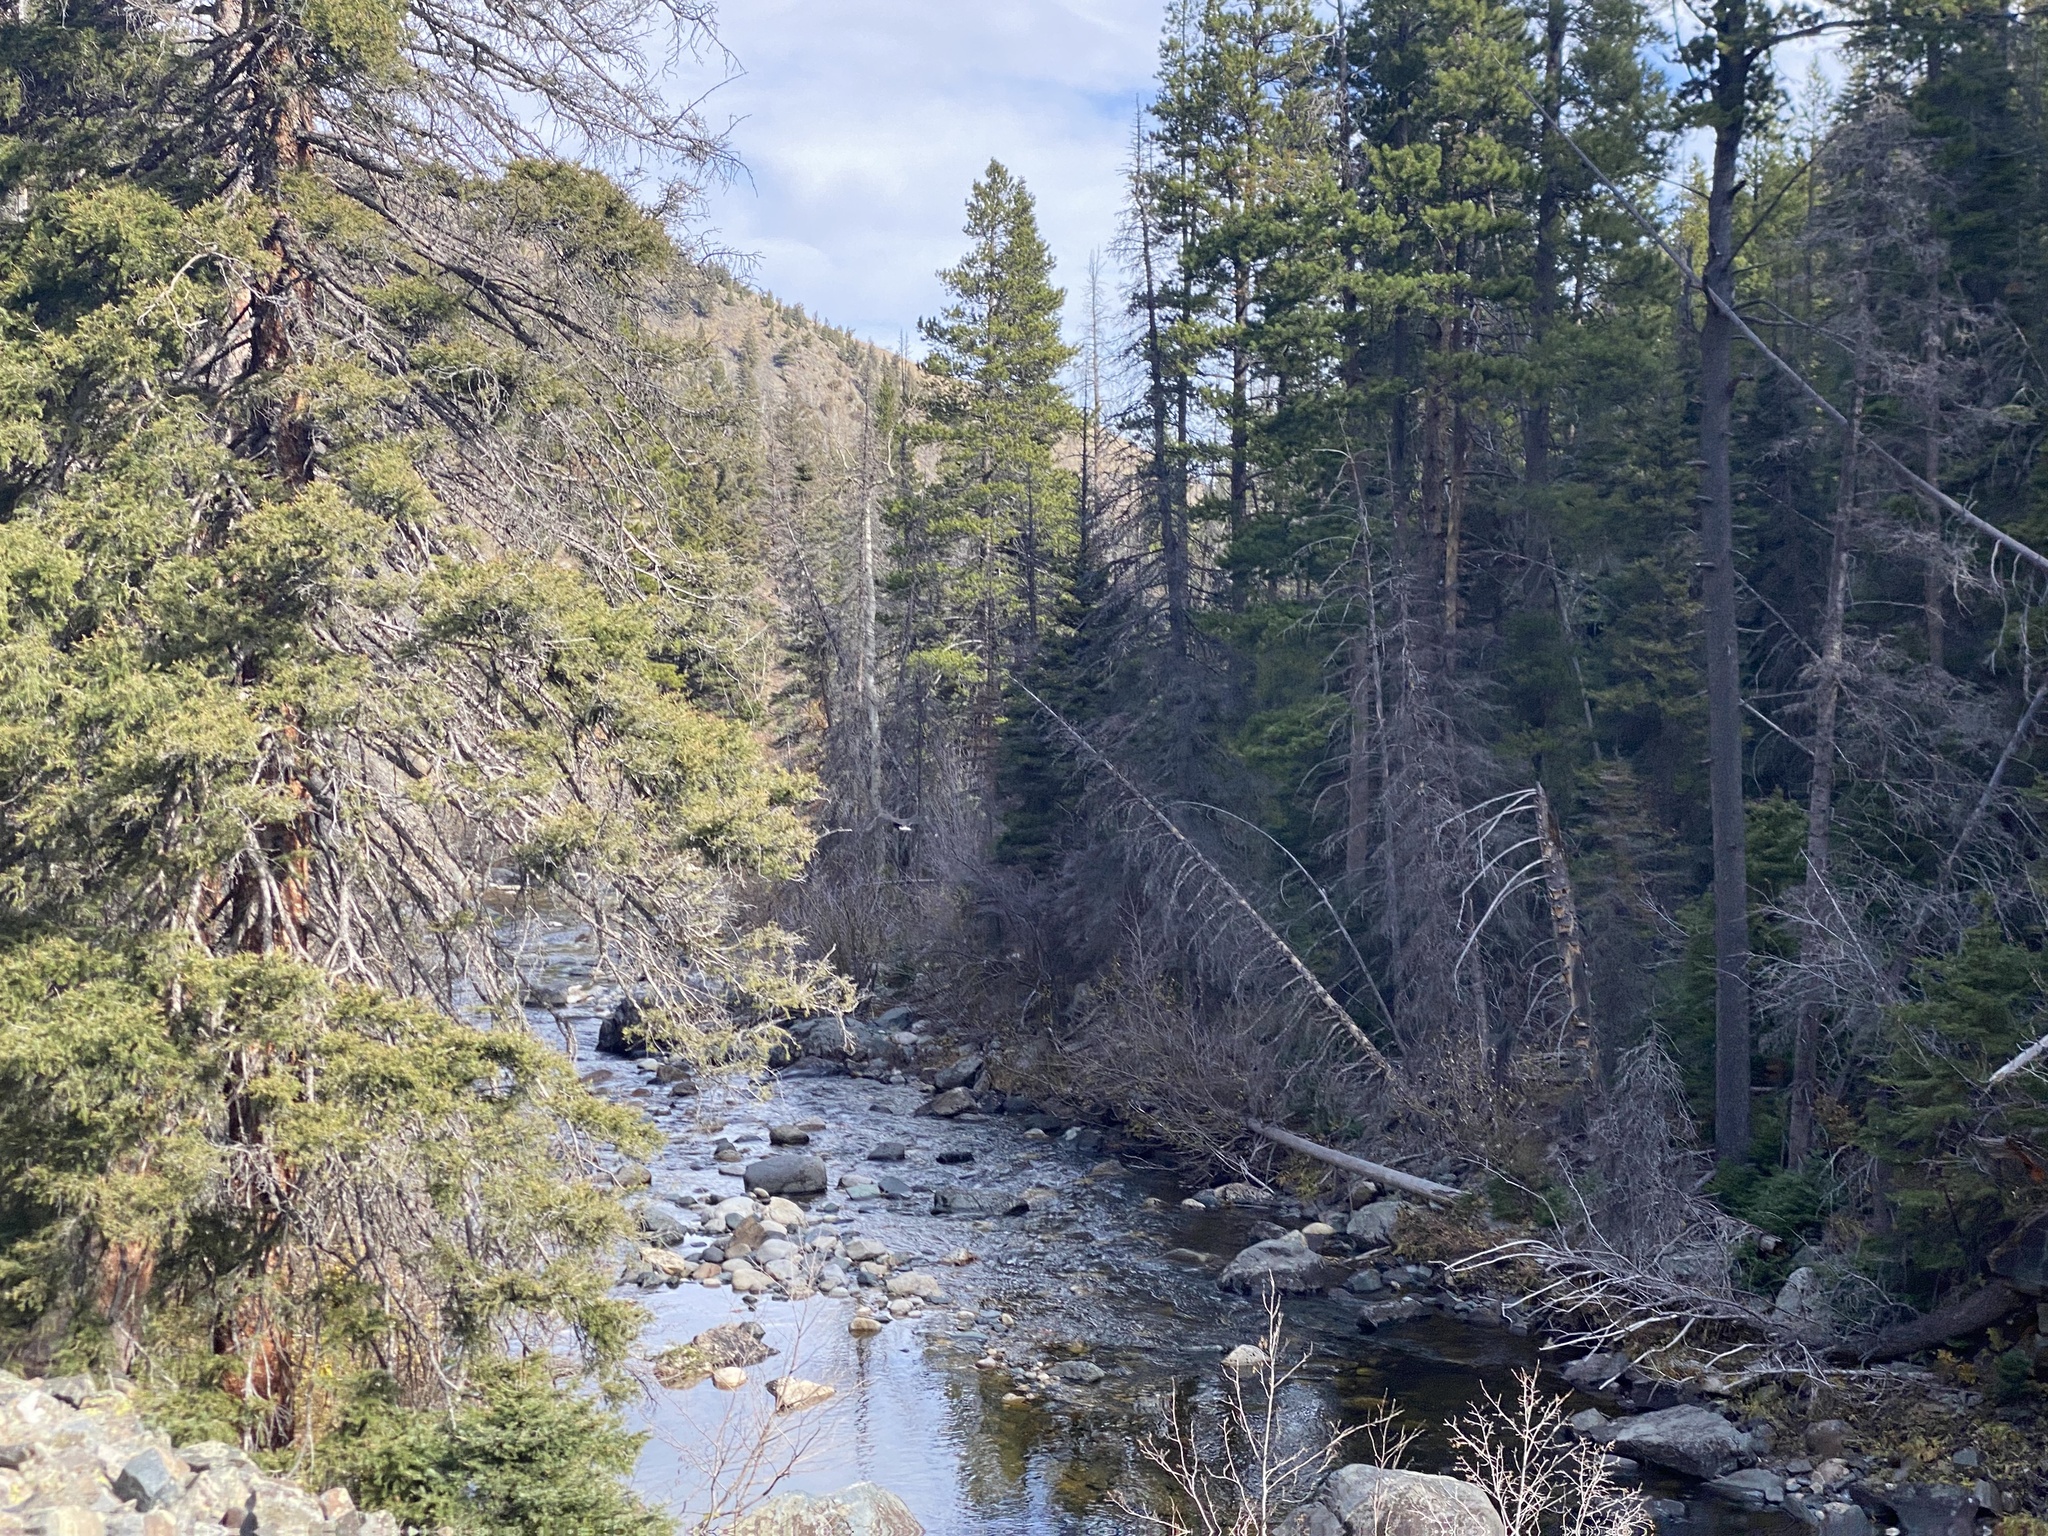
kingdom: Animalia
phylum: Chordata
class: Aves
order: Accipitriformes
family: Accipitridae
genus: Haliaeetus
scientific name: Haliaeetus leucocephalus
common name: Bald eagle
